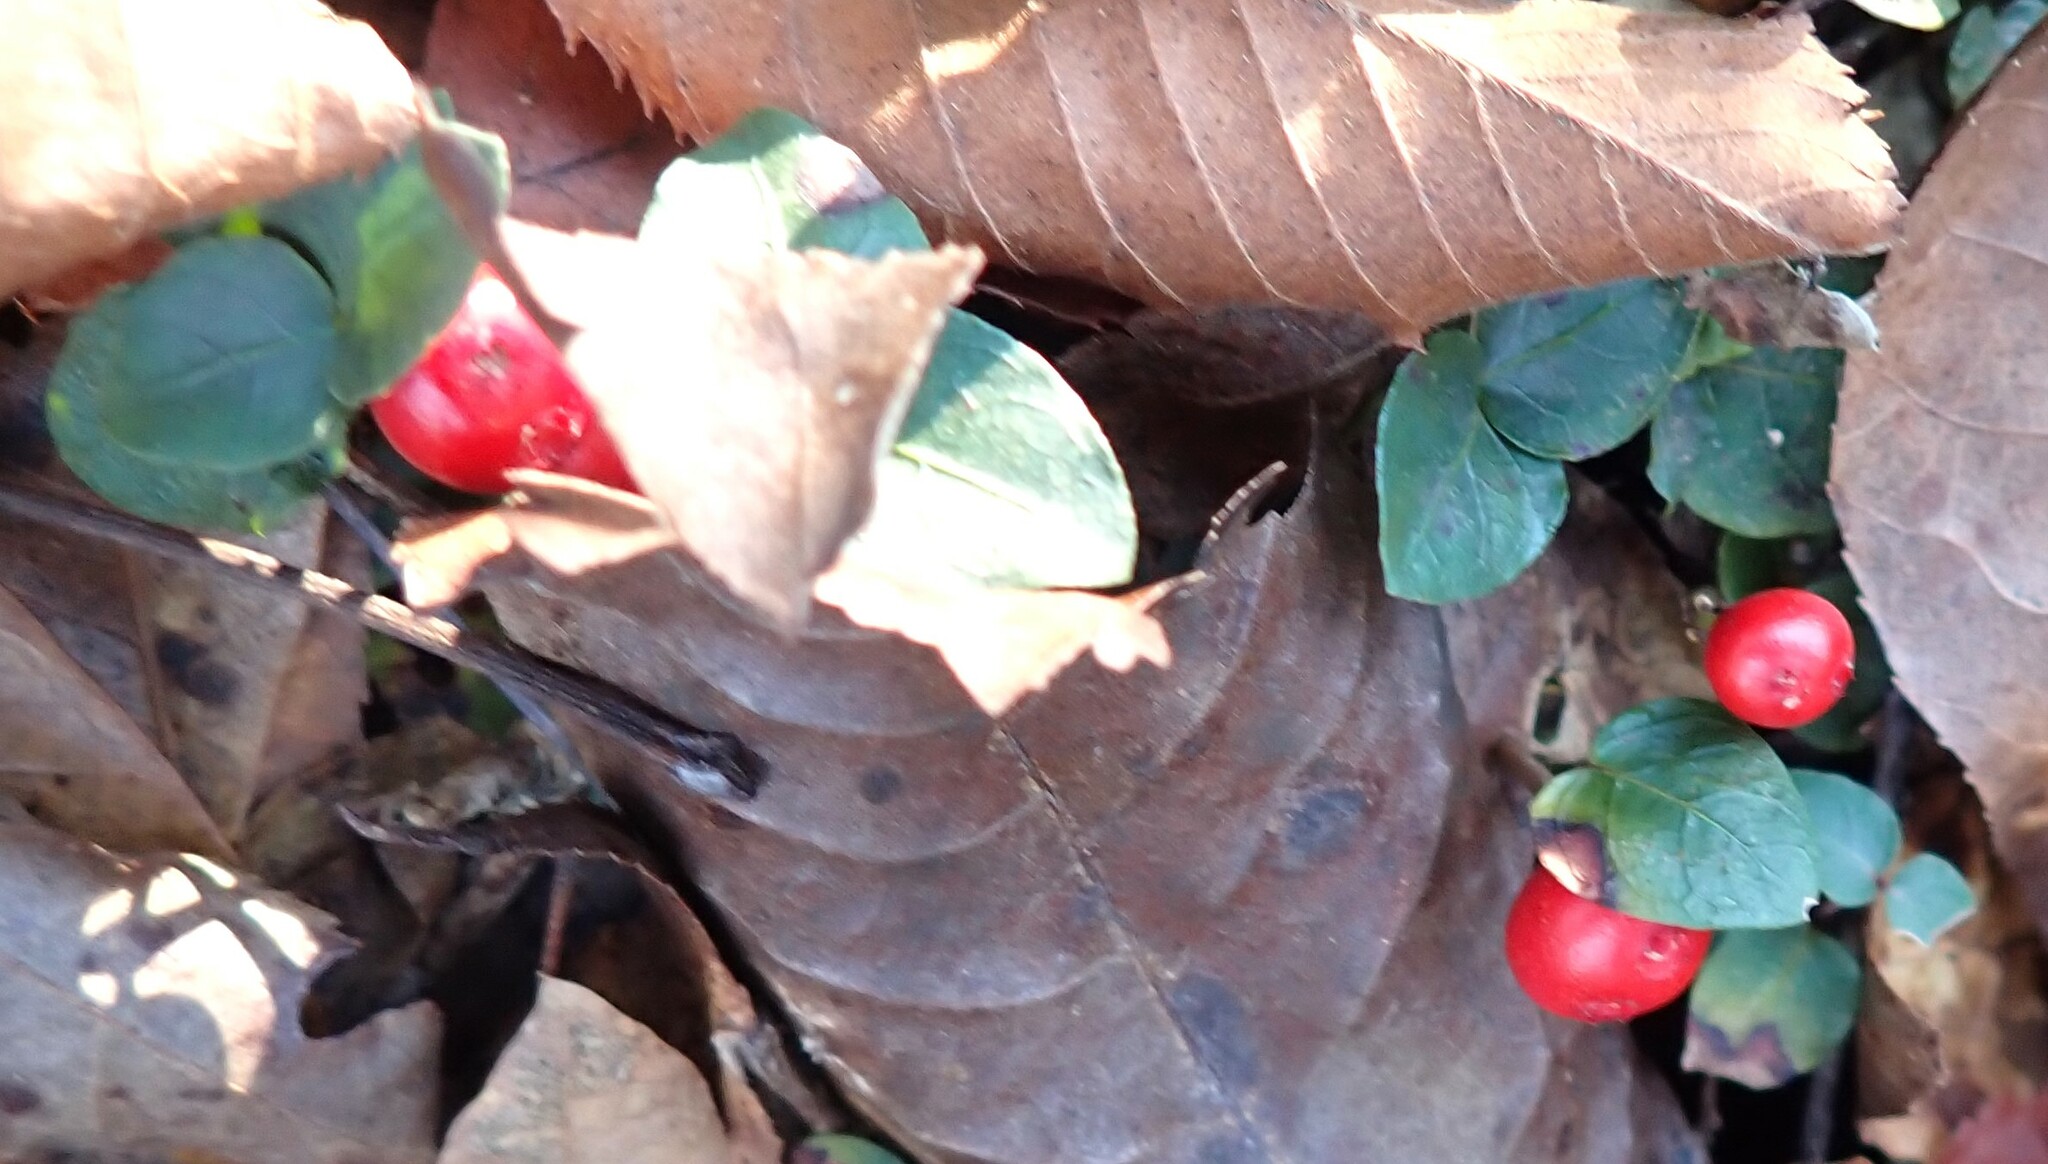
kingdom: Plantae
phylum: Tracheophyta
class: Magnoliopsida
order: Gentianales
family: Rubiaceae
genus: Mitchella
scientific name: Mitchella repens
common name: Partridge-berry
